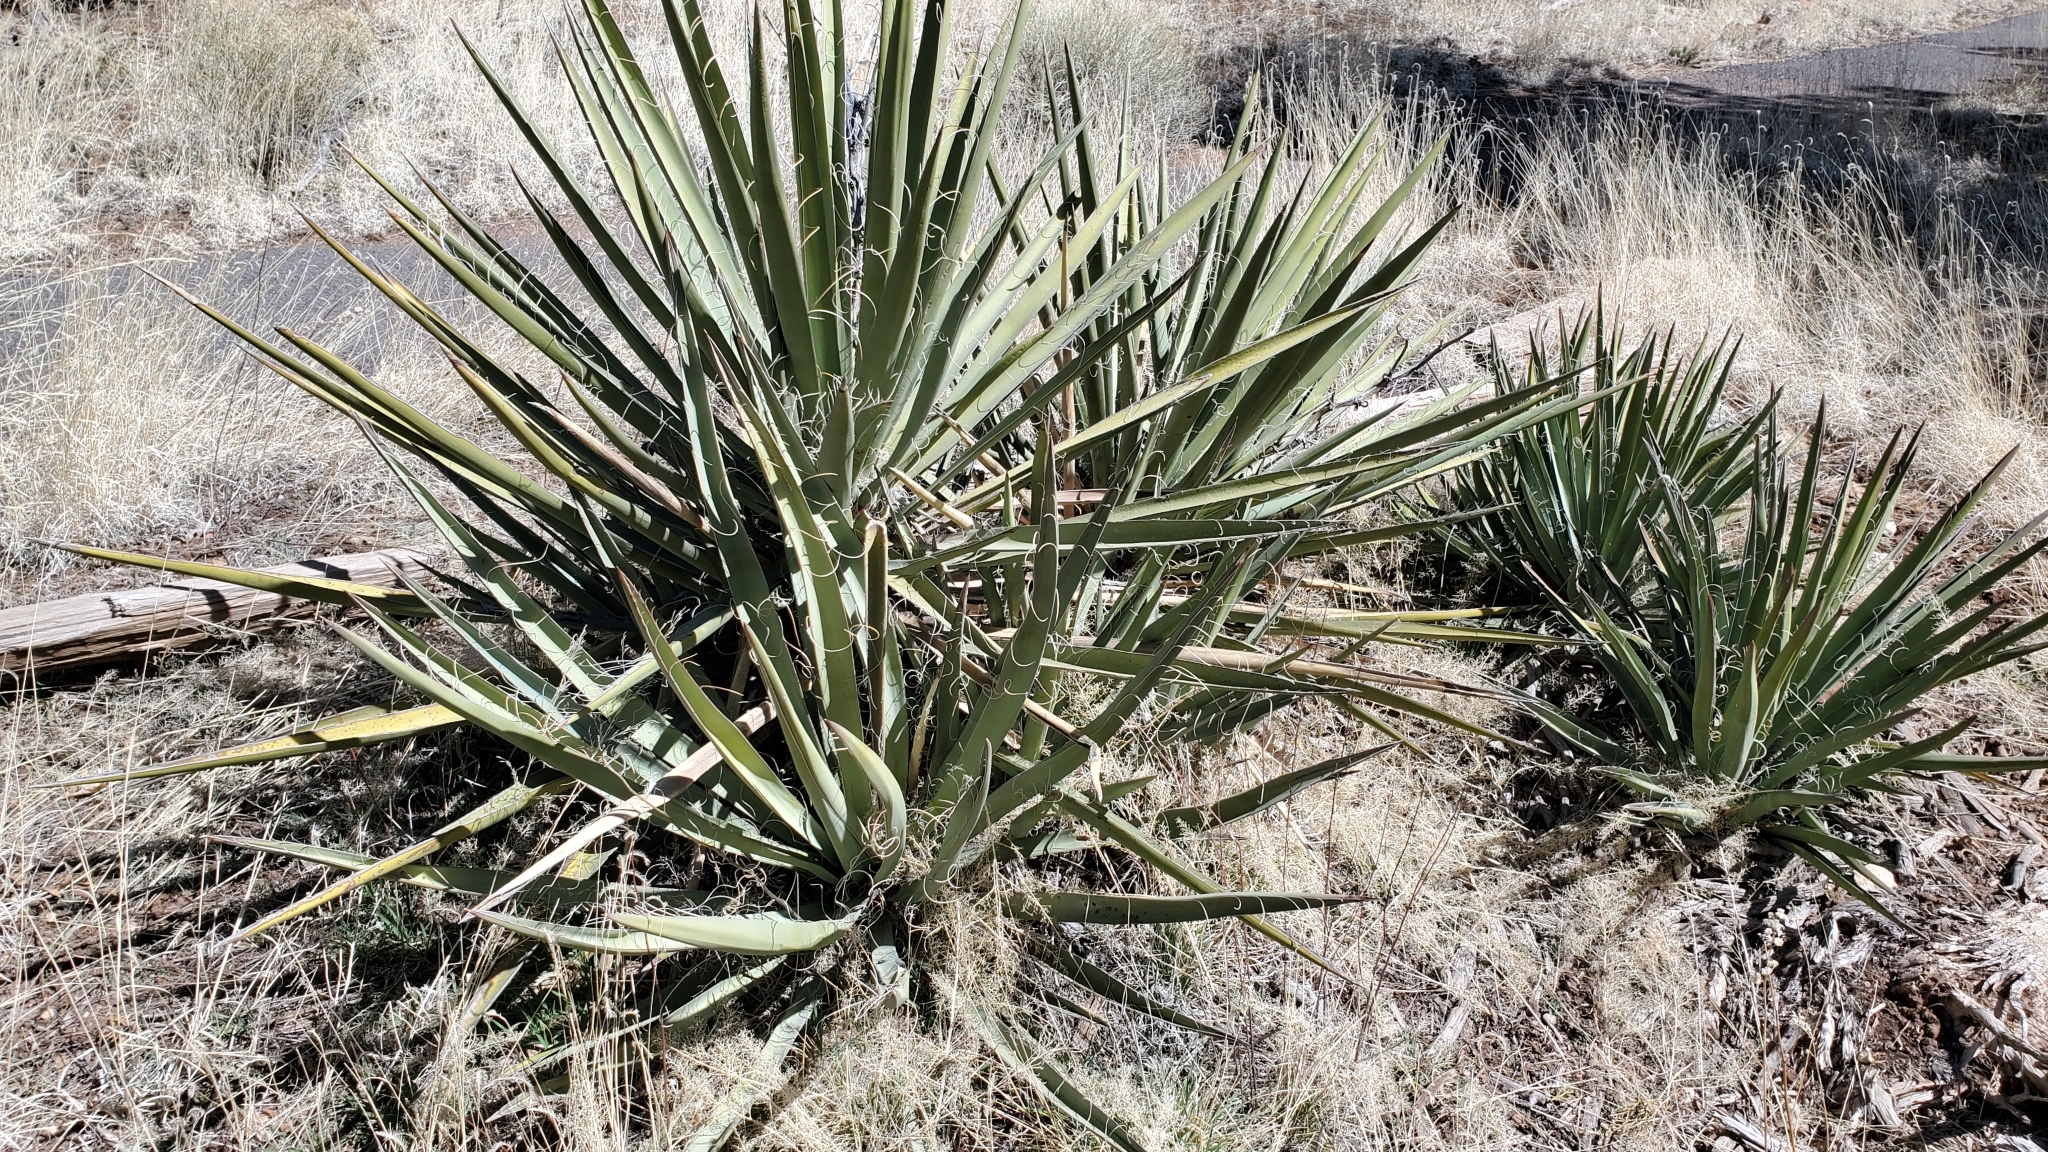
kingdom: Plantae
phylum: Tracheophyta
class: Liliopsida
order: Asparagales
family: Asparagaceae
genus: Yucca
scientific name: Yucca baccata
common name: Banana yucca
